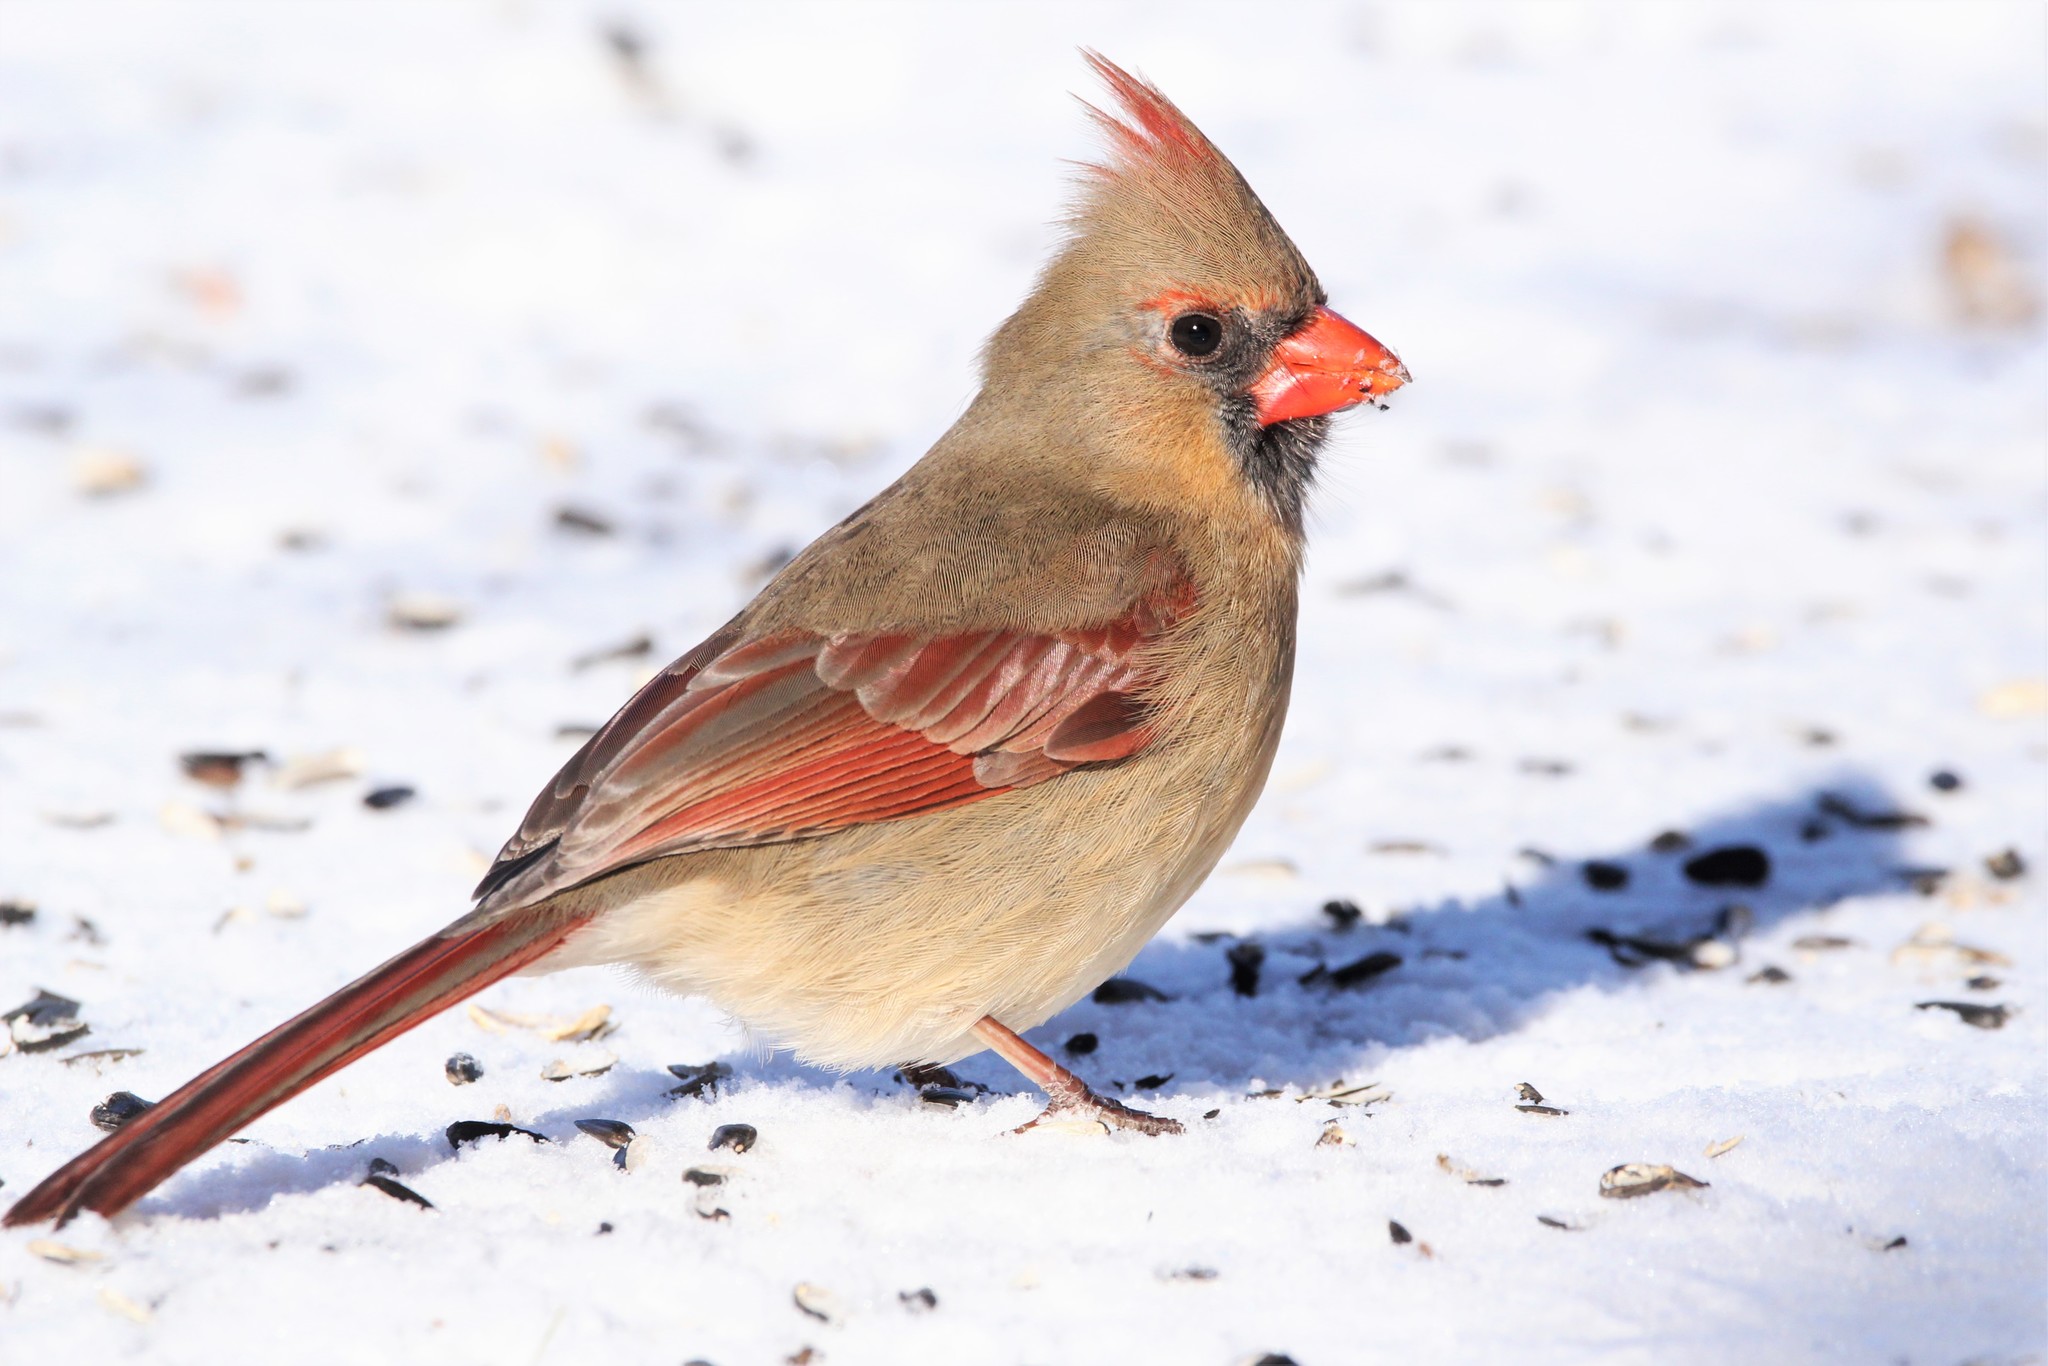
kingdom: Animalia
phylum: Chordata
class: Aves
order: Passeriformes
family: Cardinalidae
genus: Cardinalis
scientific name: Cardinalis cardinalis
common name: Northern cardinal
